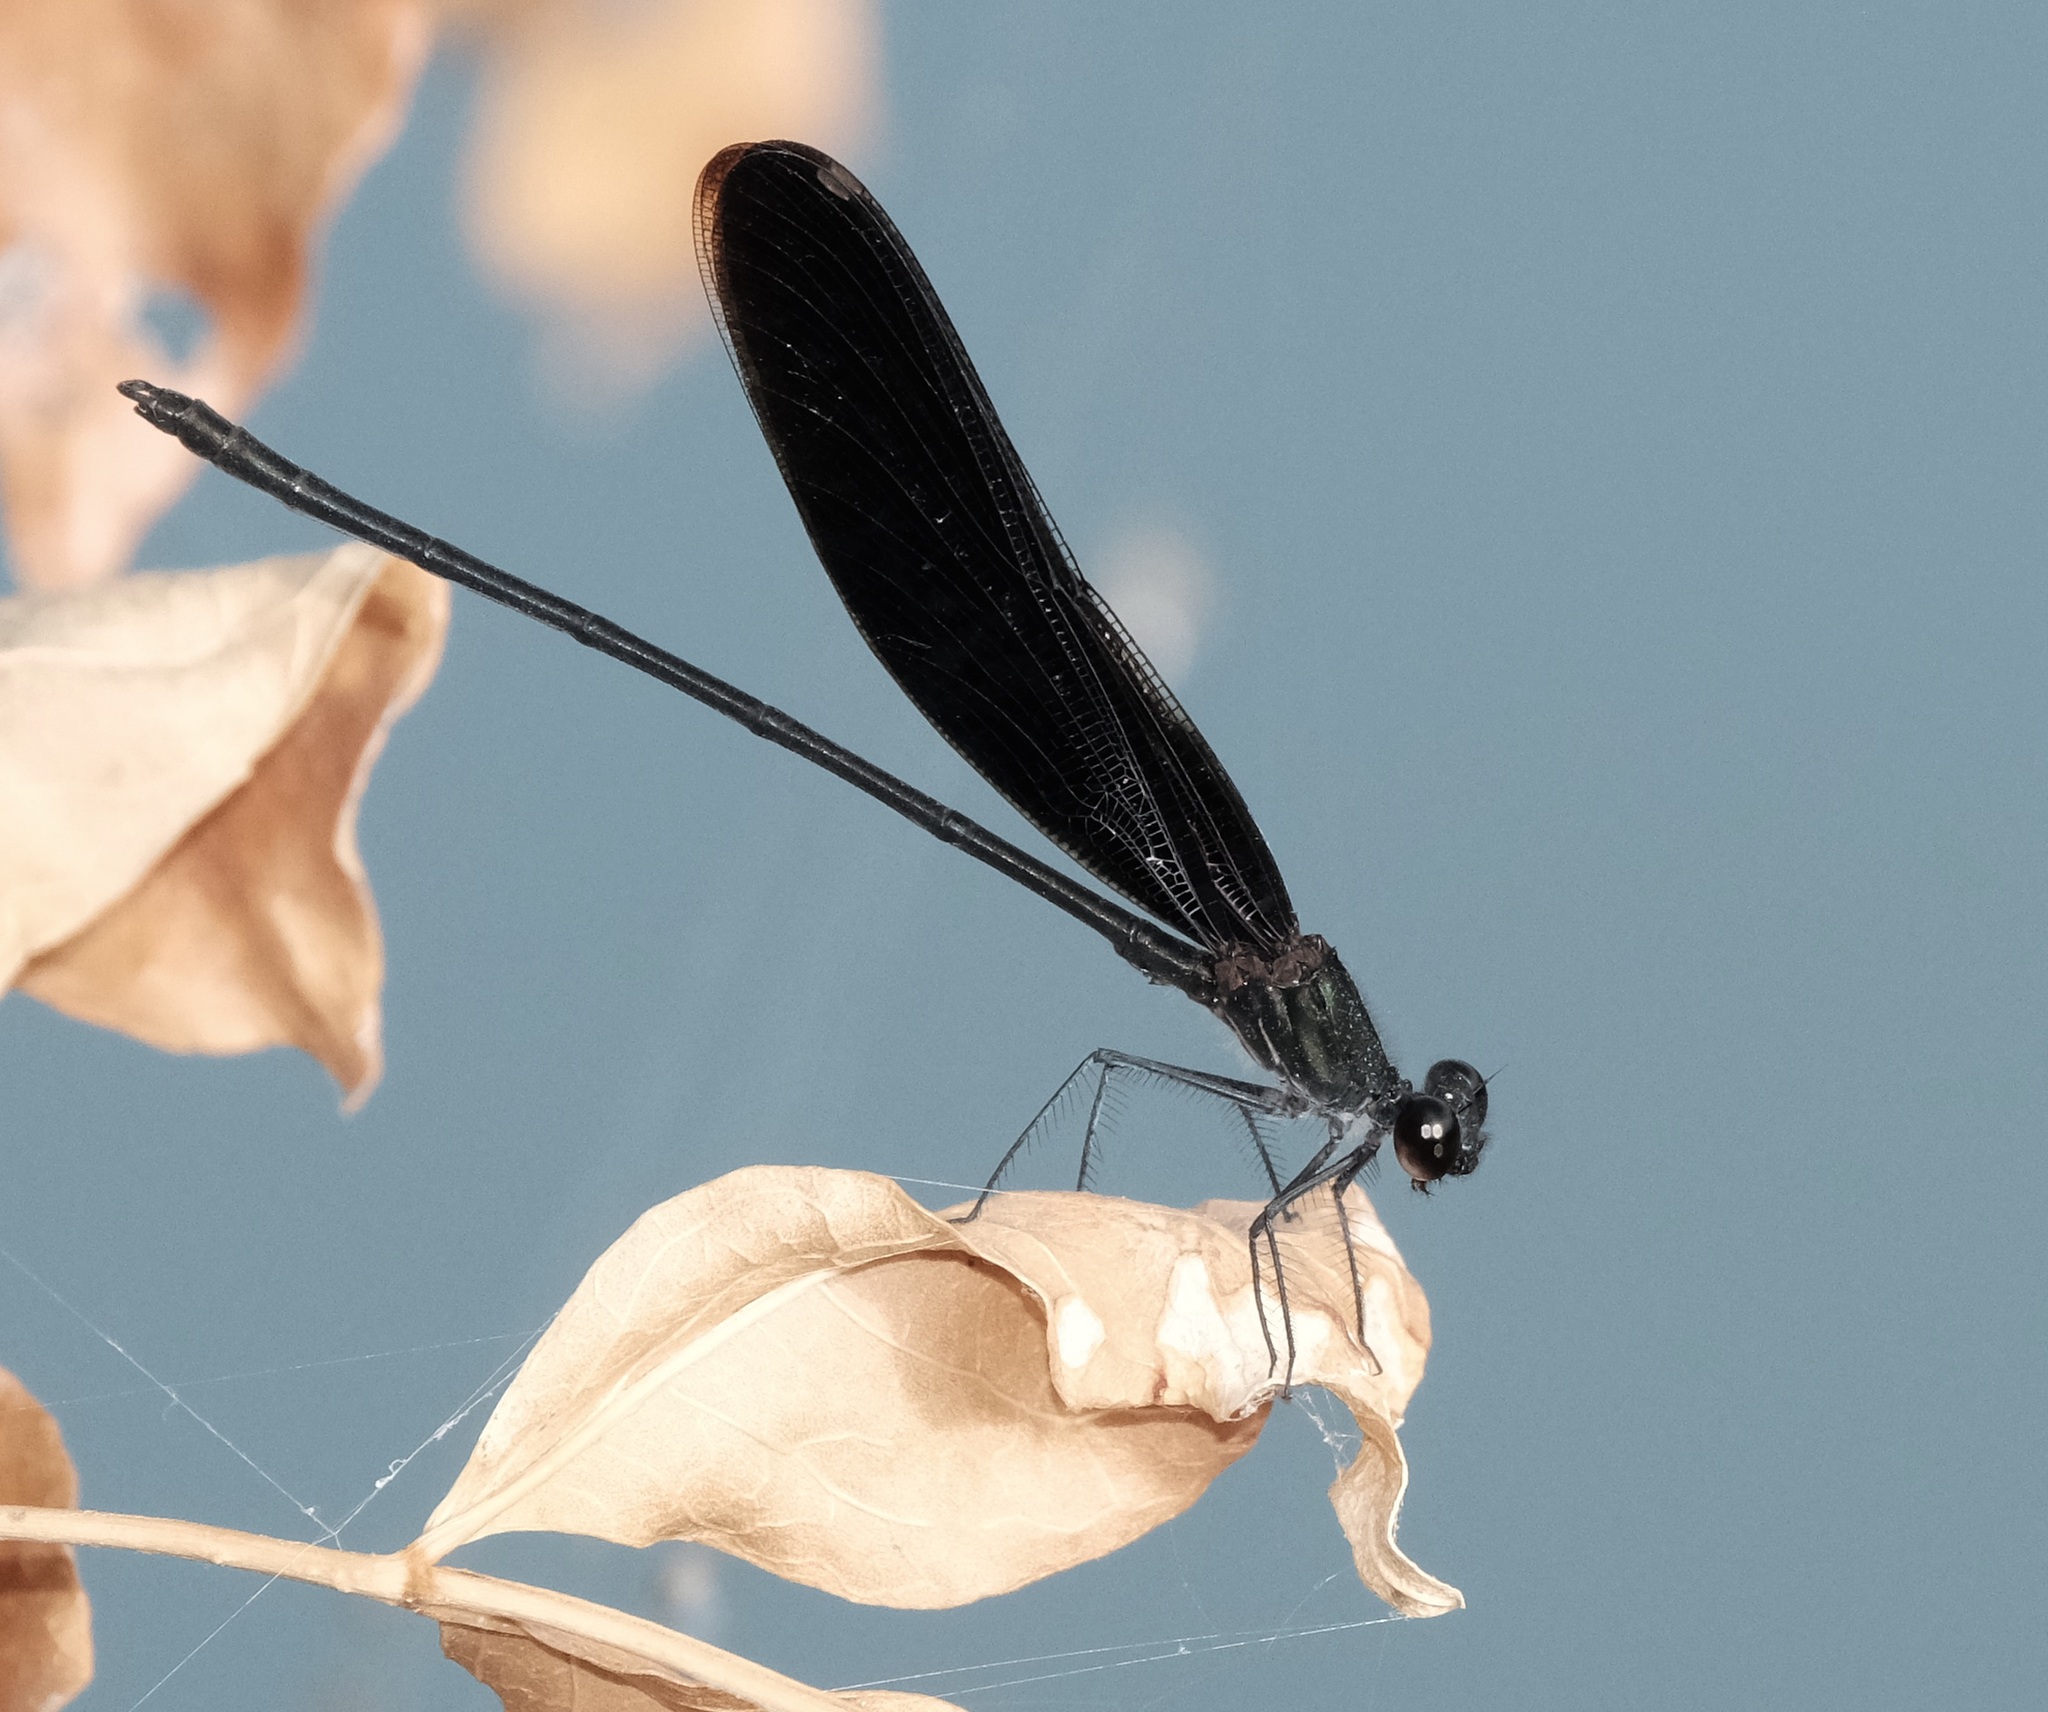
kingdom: Animalia
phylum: Arthropoda
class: Insecta
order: Odonata
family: Calopterygidae
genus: Hetaerina
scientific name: Hetaerina titia
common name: Smoky rubyspot
